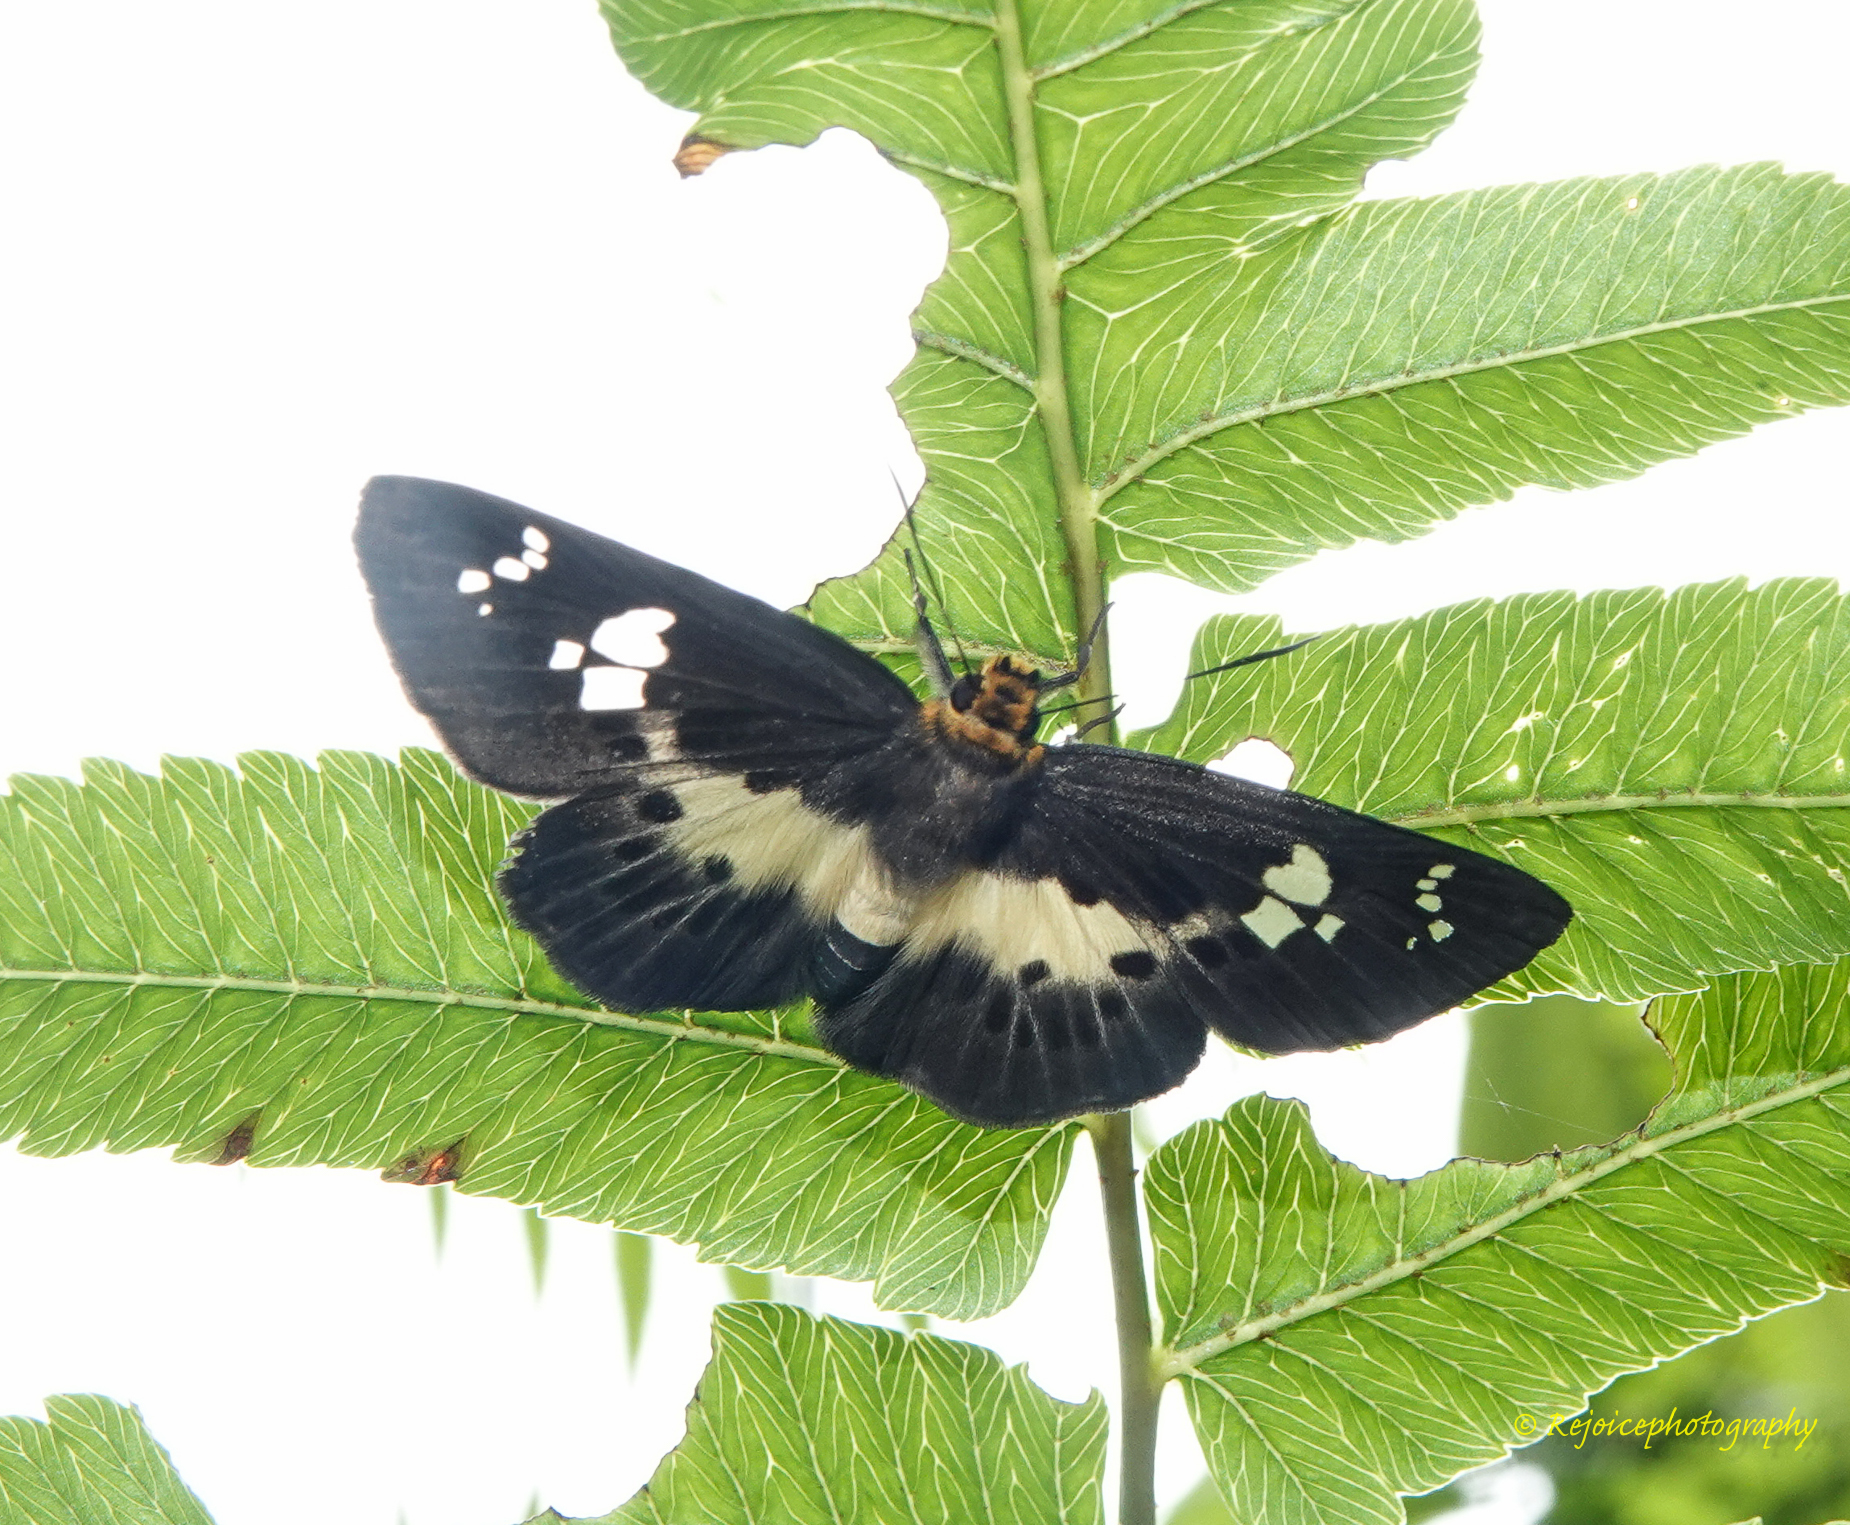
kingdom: Animalia
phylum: Arthropoda
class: Insecta
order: Lepidoptera
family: Hesperiidae
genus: Daimio
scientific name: Daimio
